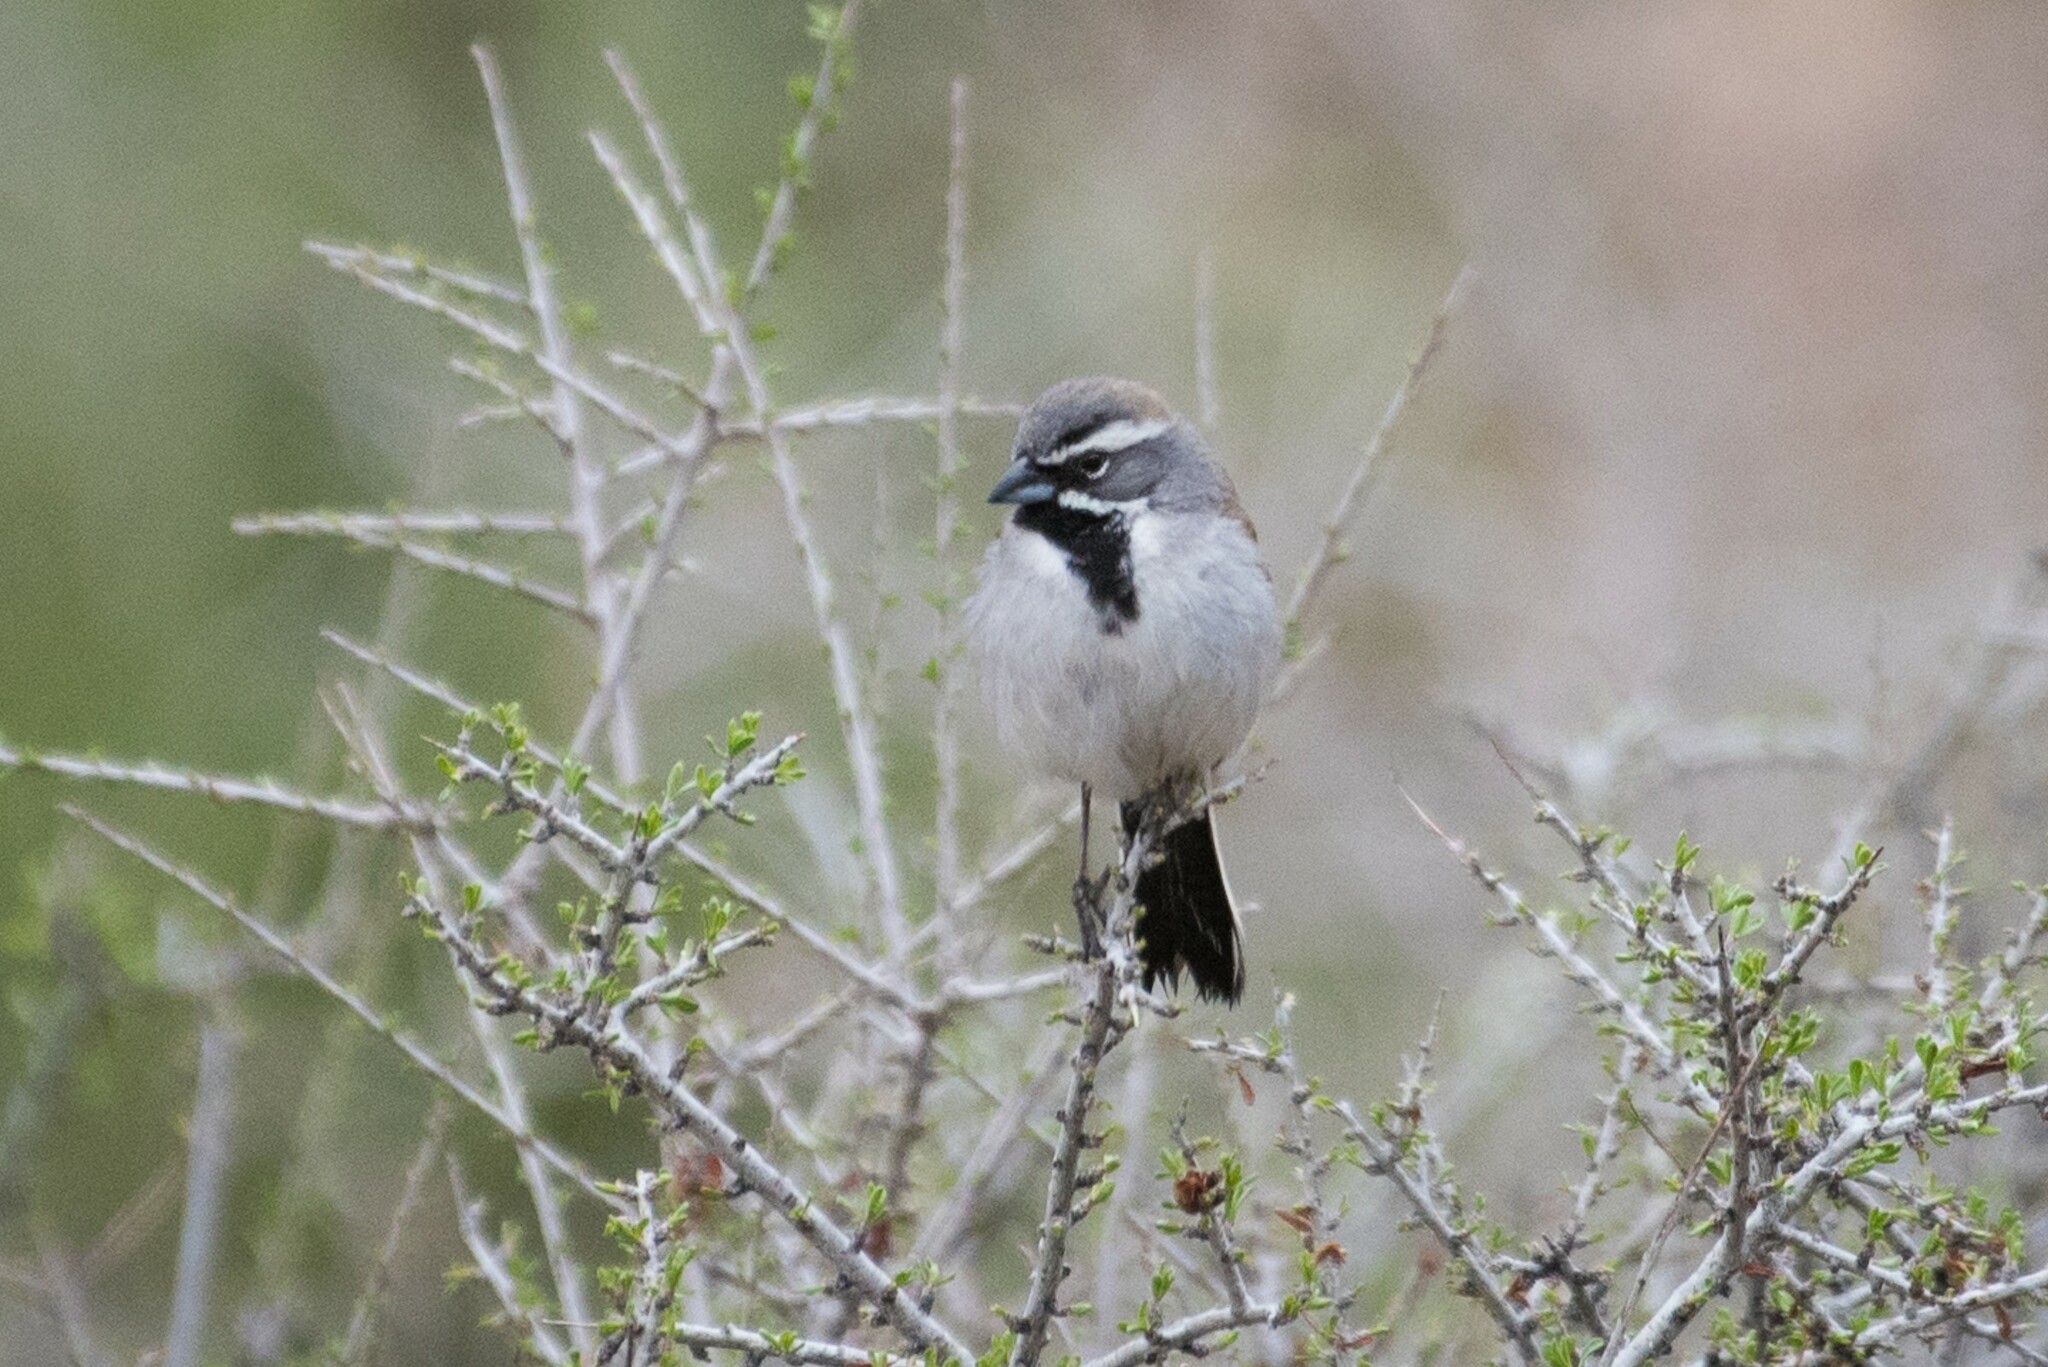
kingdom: Animalia
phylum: Chordata
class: Aves
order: Passeriformes
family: Passerellidae
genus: Amphispiza
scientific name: Amphispiza bilineata
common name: Black-throated sparrow
